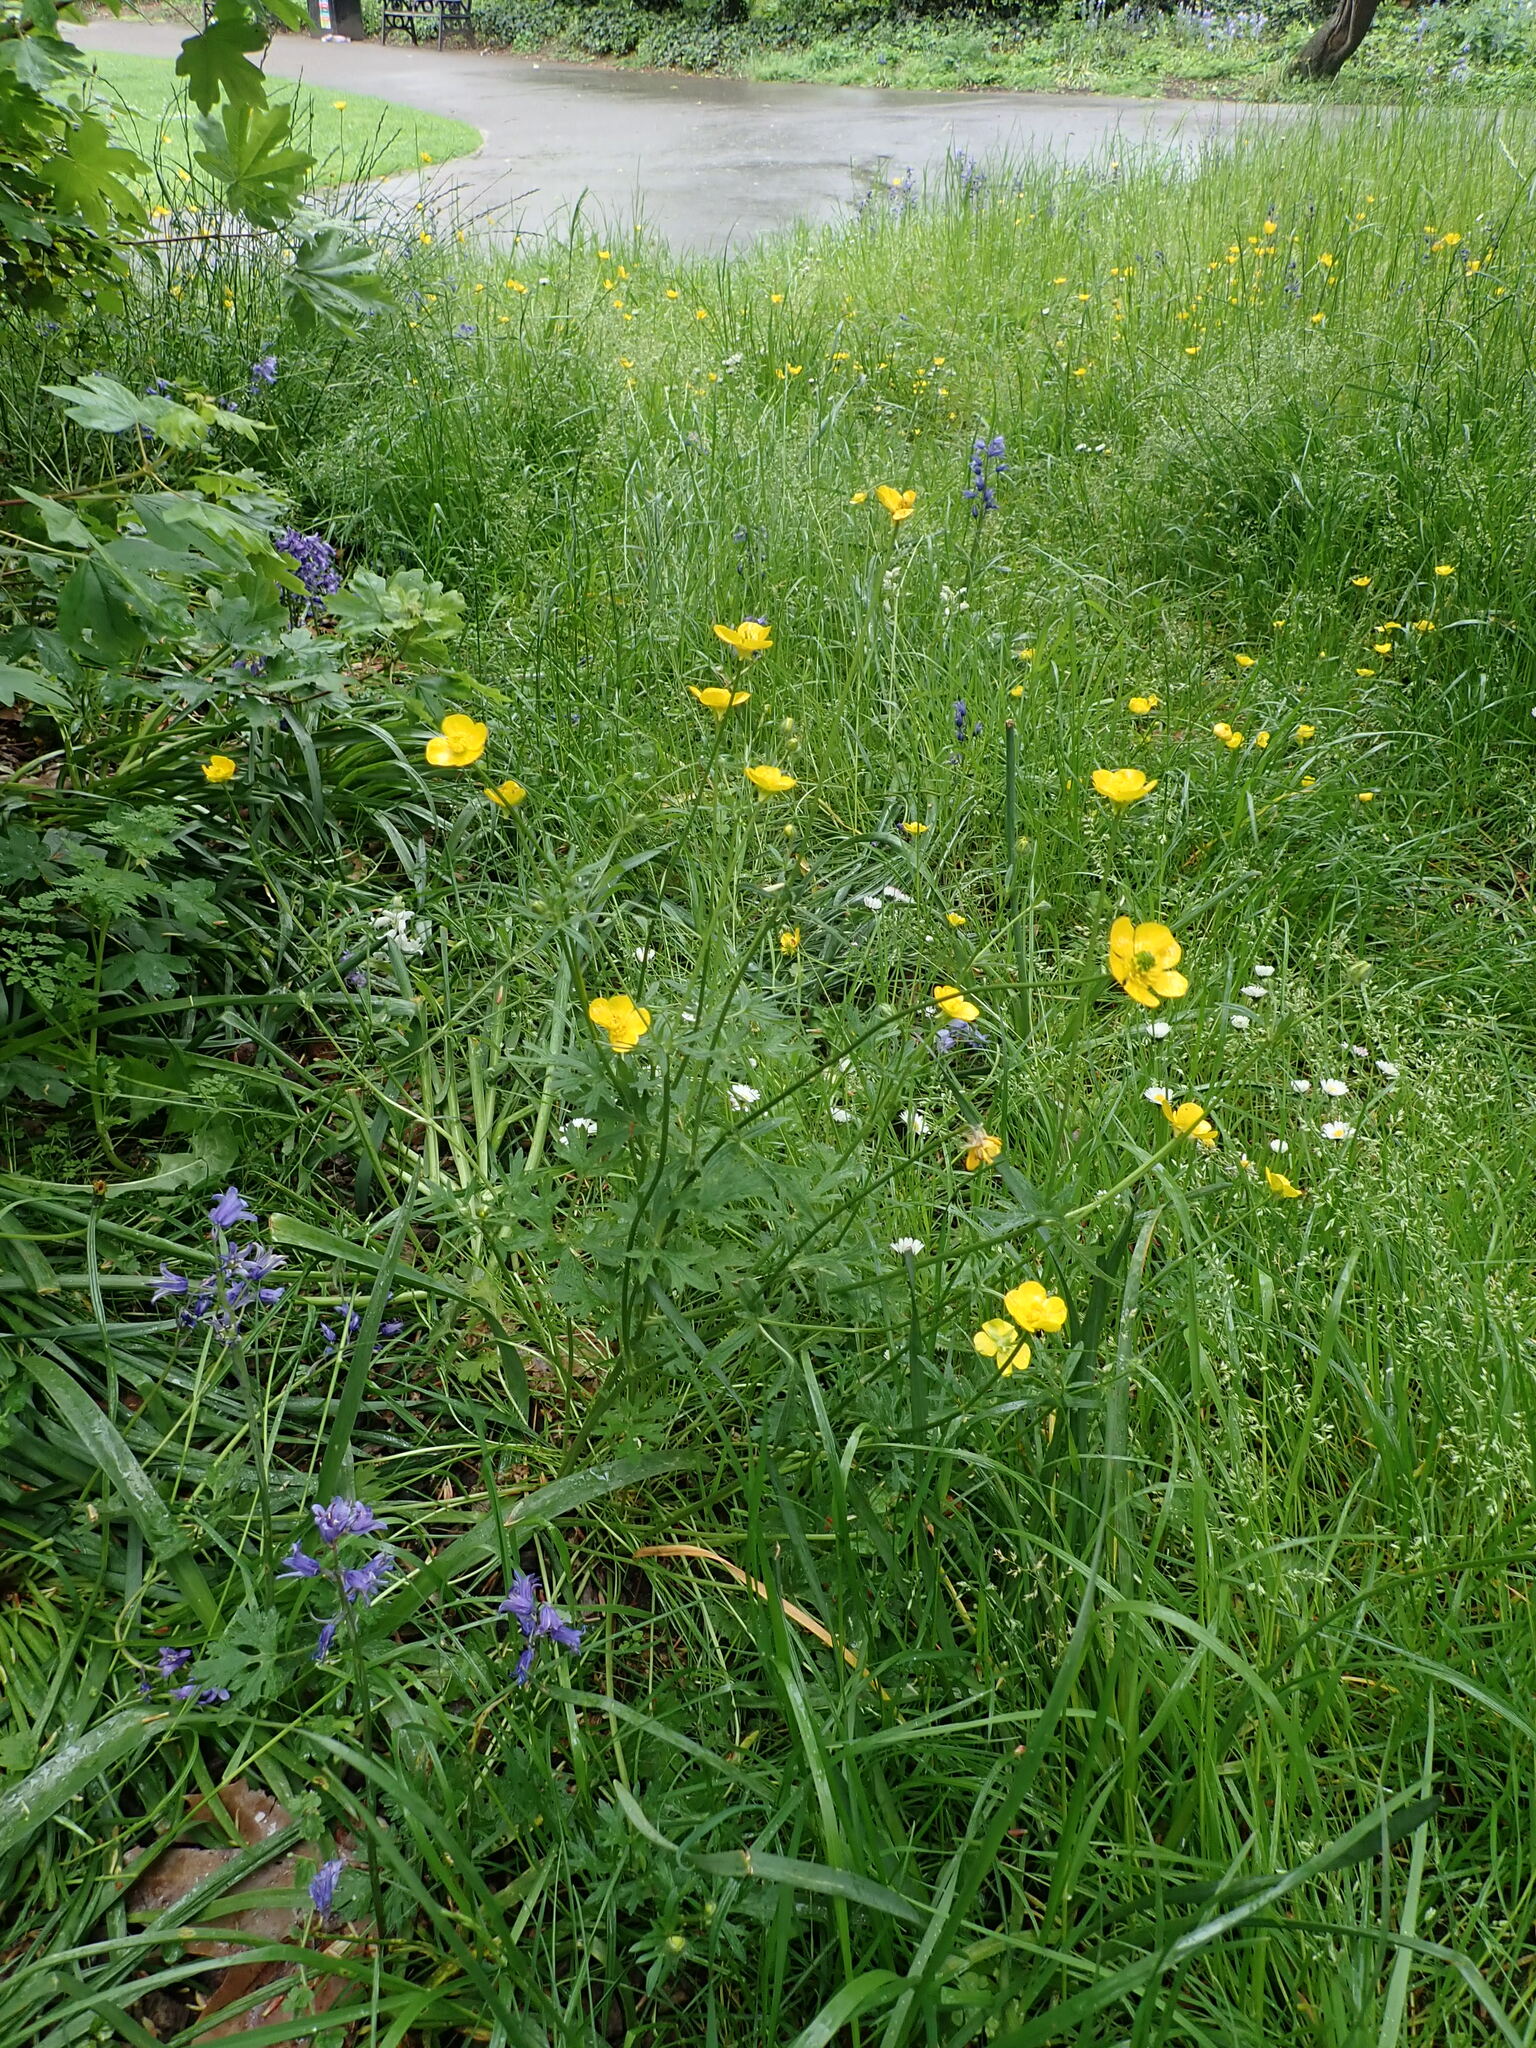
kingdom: Plantae
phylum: Tracheophyta
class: Magnoliopsida
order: Ranunculales
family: Ranunculaceae
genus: Ranunculus
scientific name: Ranunculus bulbosus
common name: Bulbous buttercup
